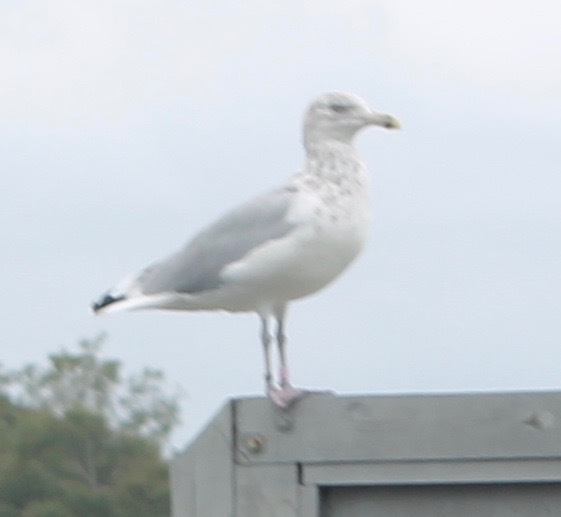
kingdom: Animalia
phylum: Chordata
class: Aves
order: Charadriiformes
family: Laridae
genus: Larus
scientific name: Larus argentatus
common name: Herring gull
